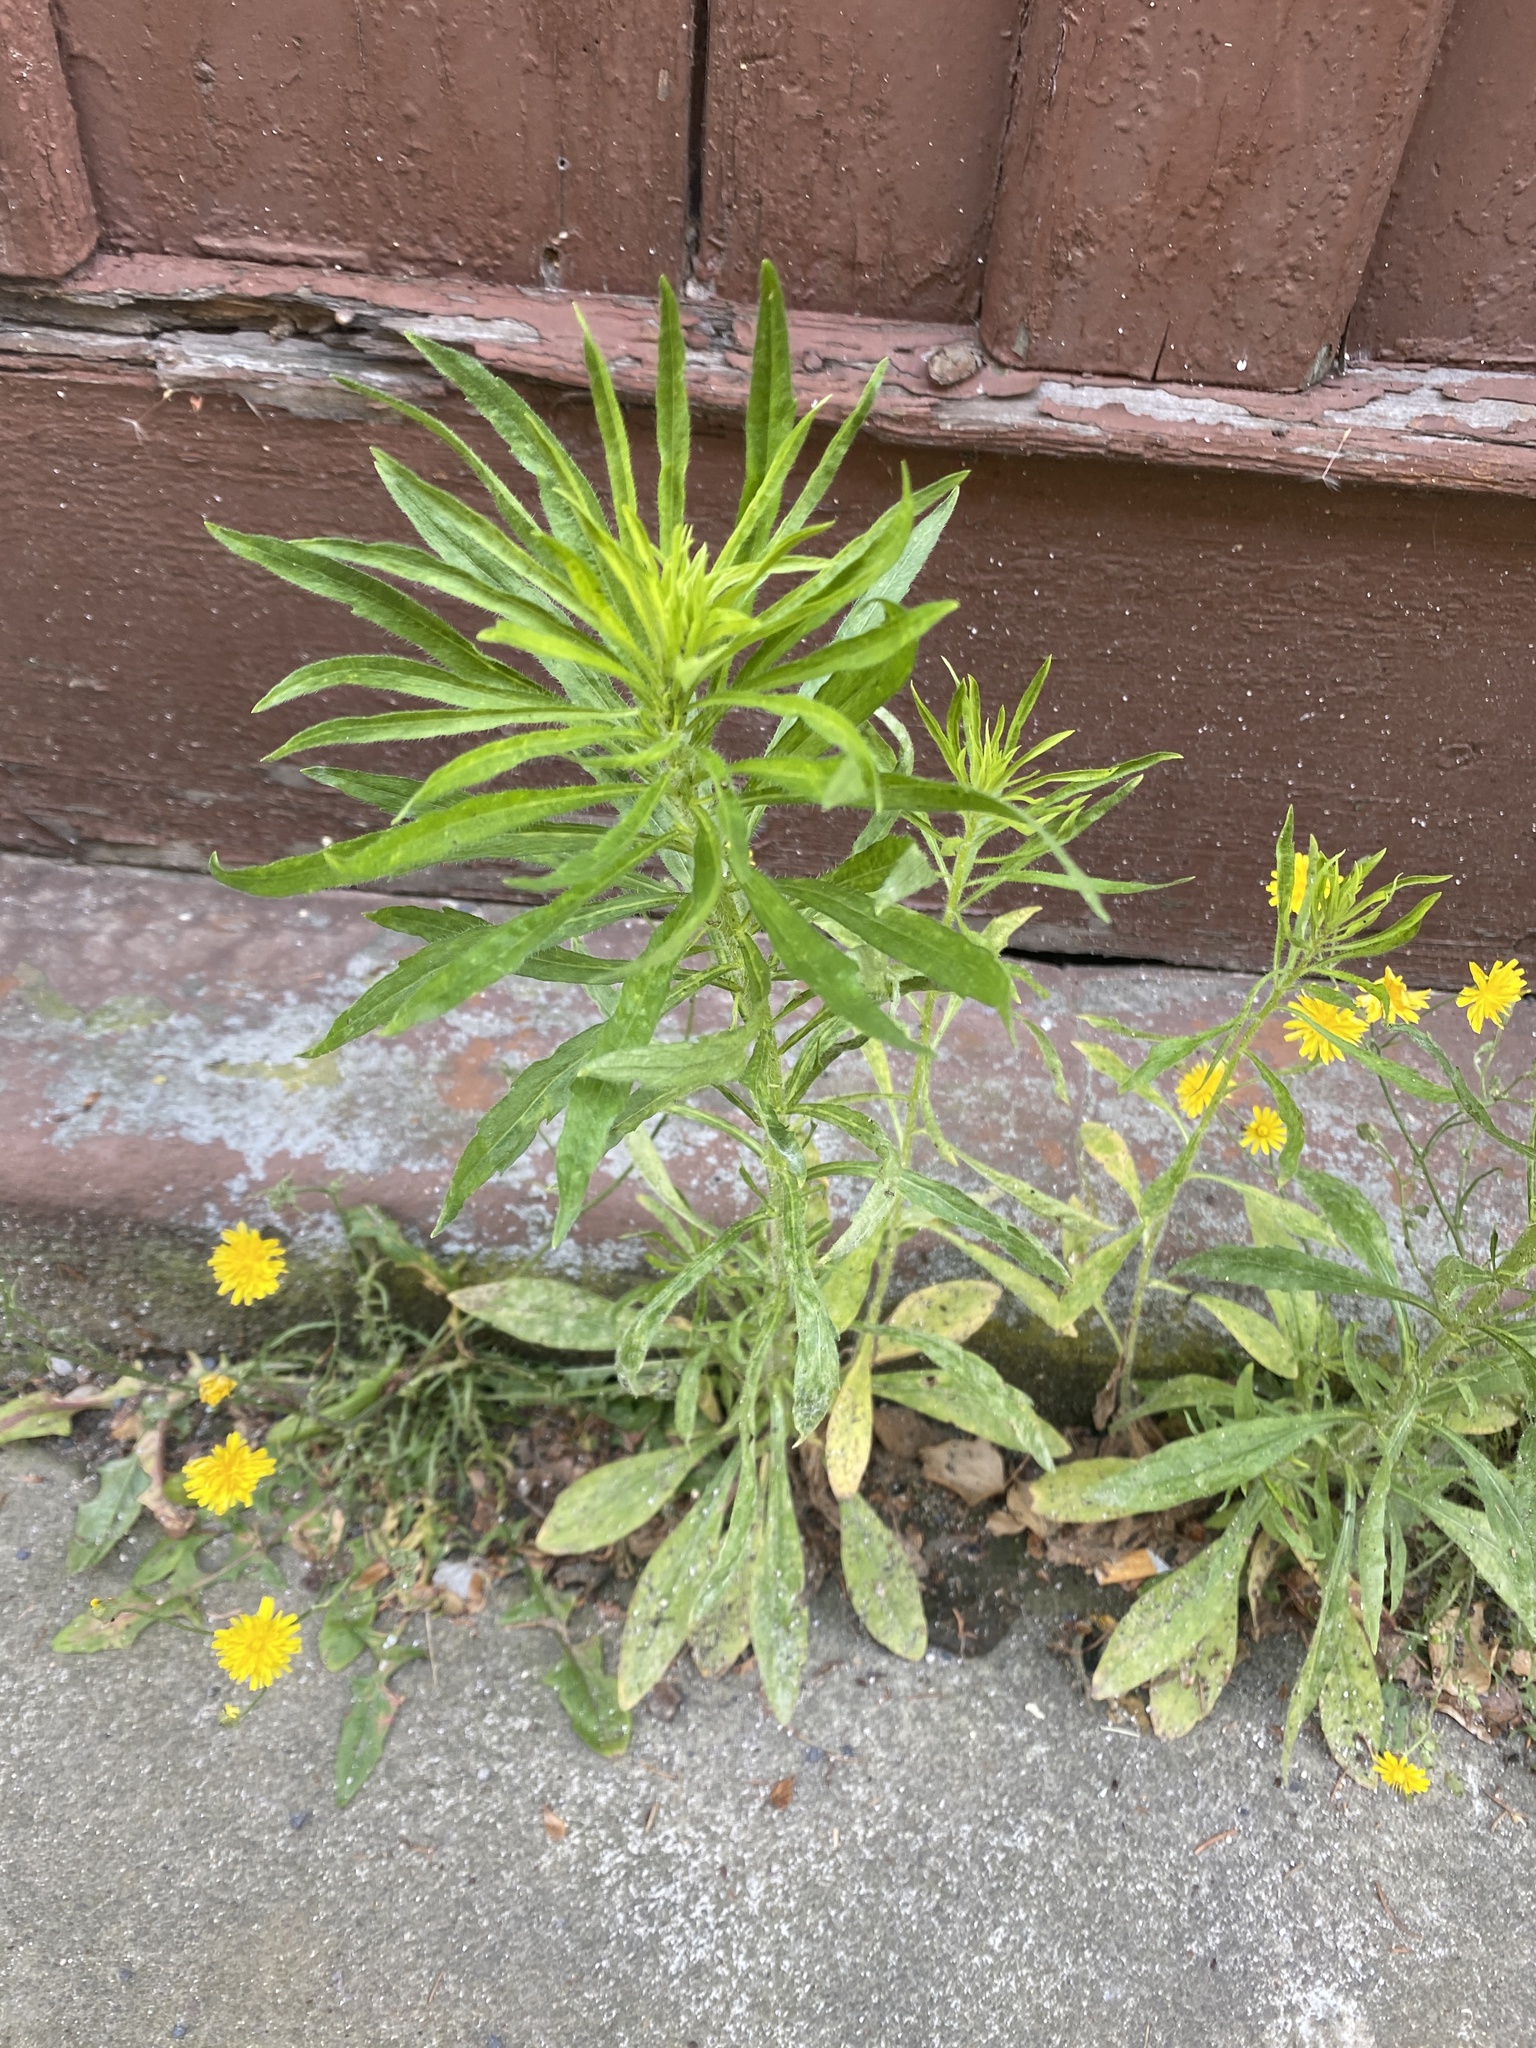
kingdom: Plantae
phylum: Tracheophyta
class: Magnoliopsida
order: Asterales
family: Asteraceae
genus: Erigeron
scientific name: Erigeron canadensis
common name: Canadian fleabane
